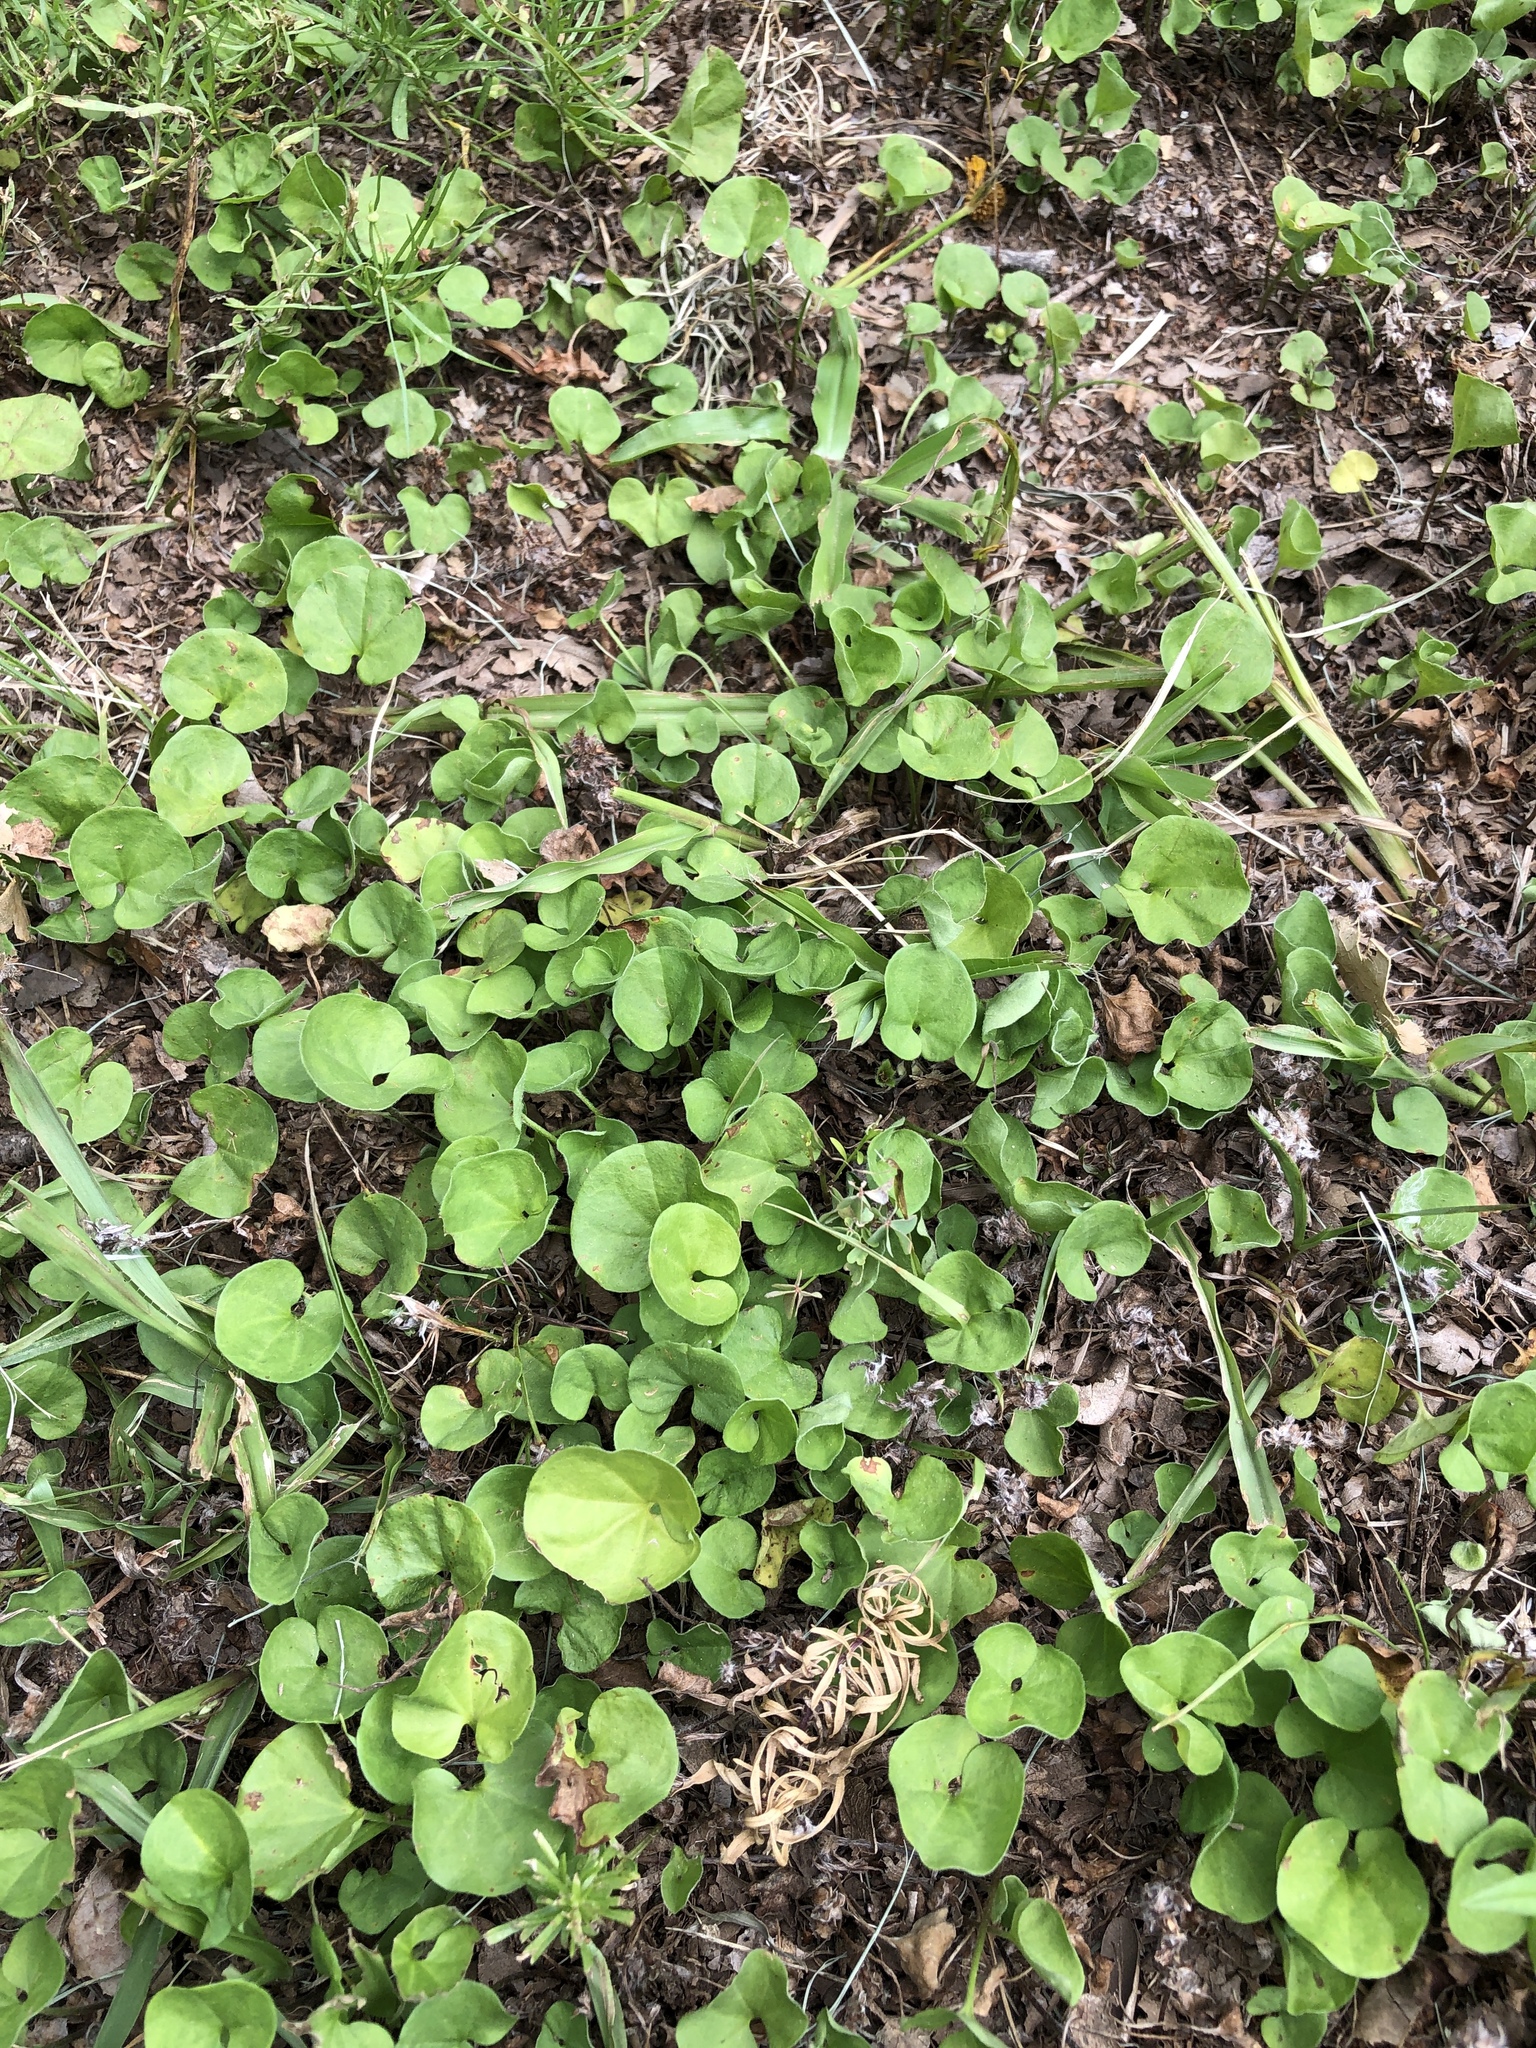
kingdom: Plantae
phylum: Tracheophyta
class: Magnoliopsida
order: Solanales
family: Convolvulaceae
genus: Dichondra
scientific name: Dichondra carolinensis
